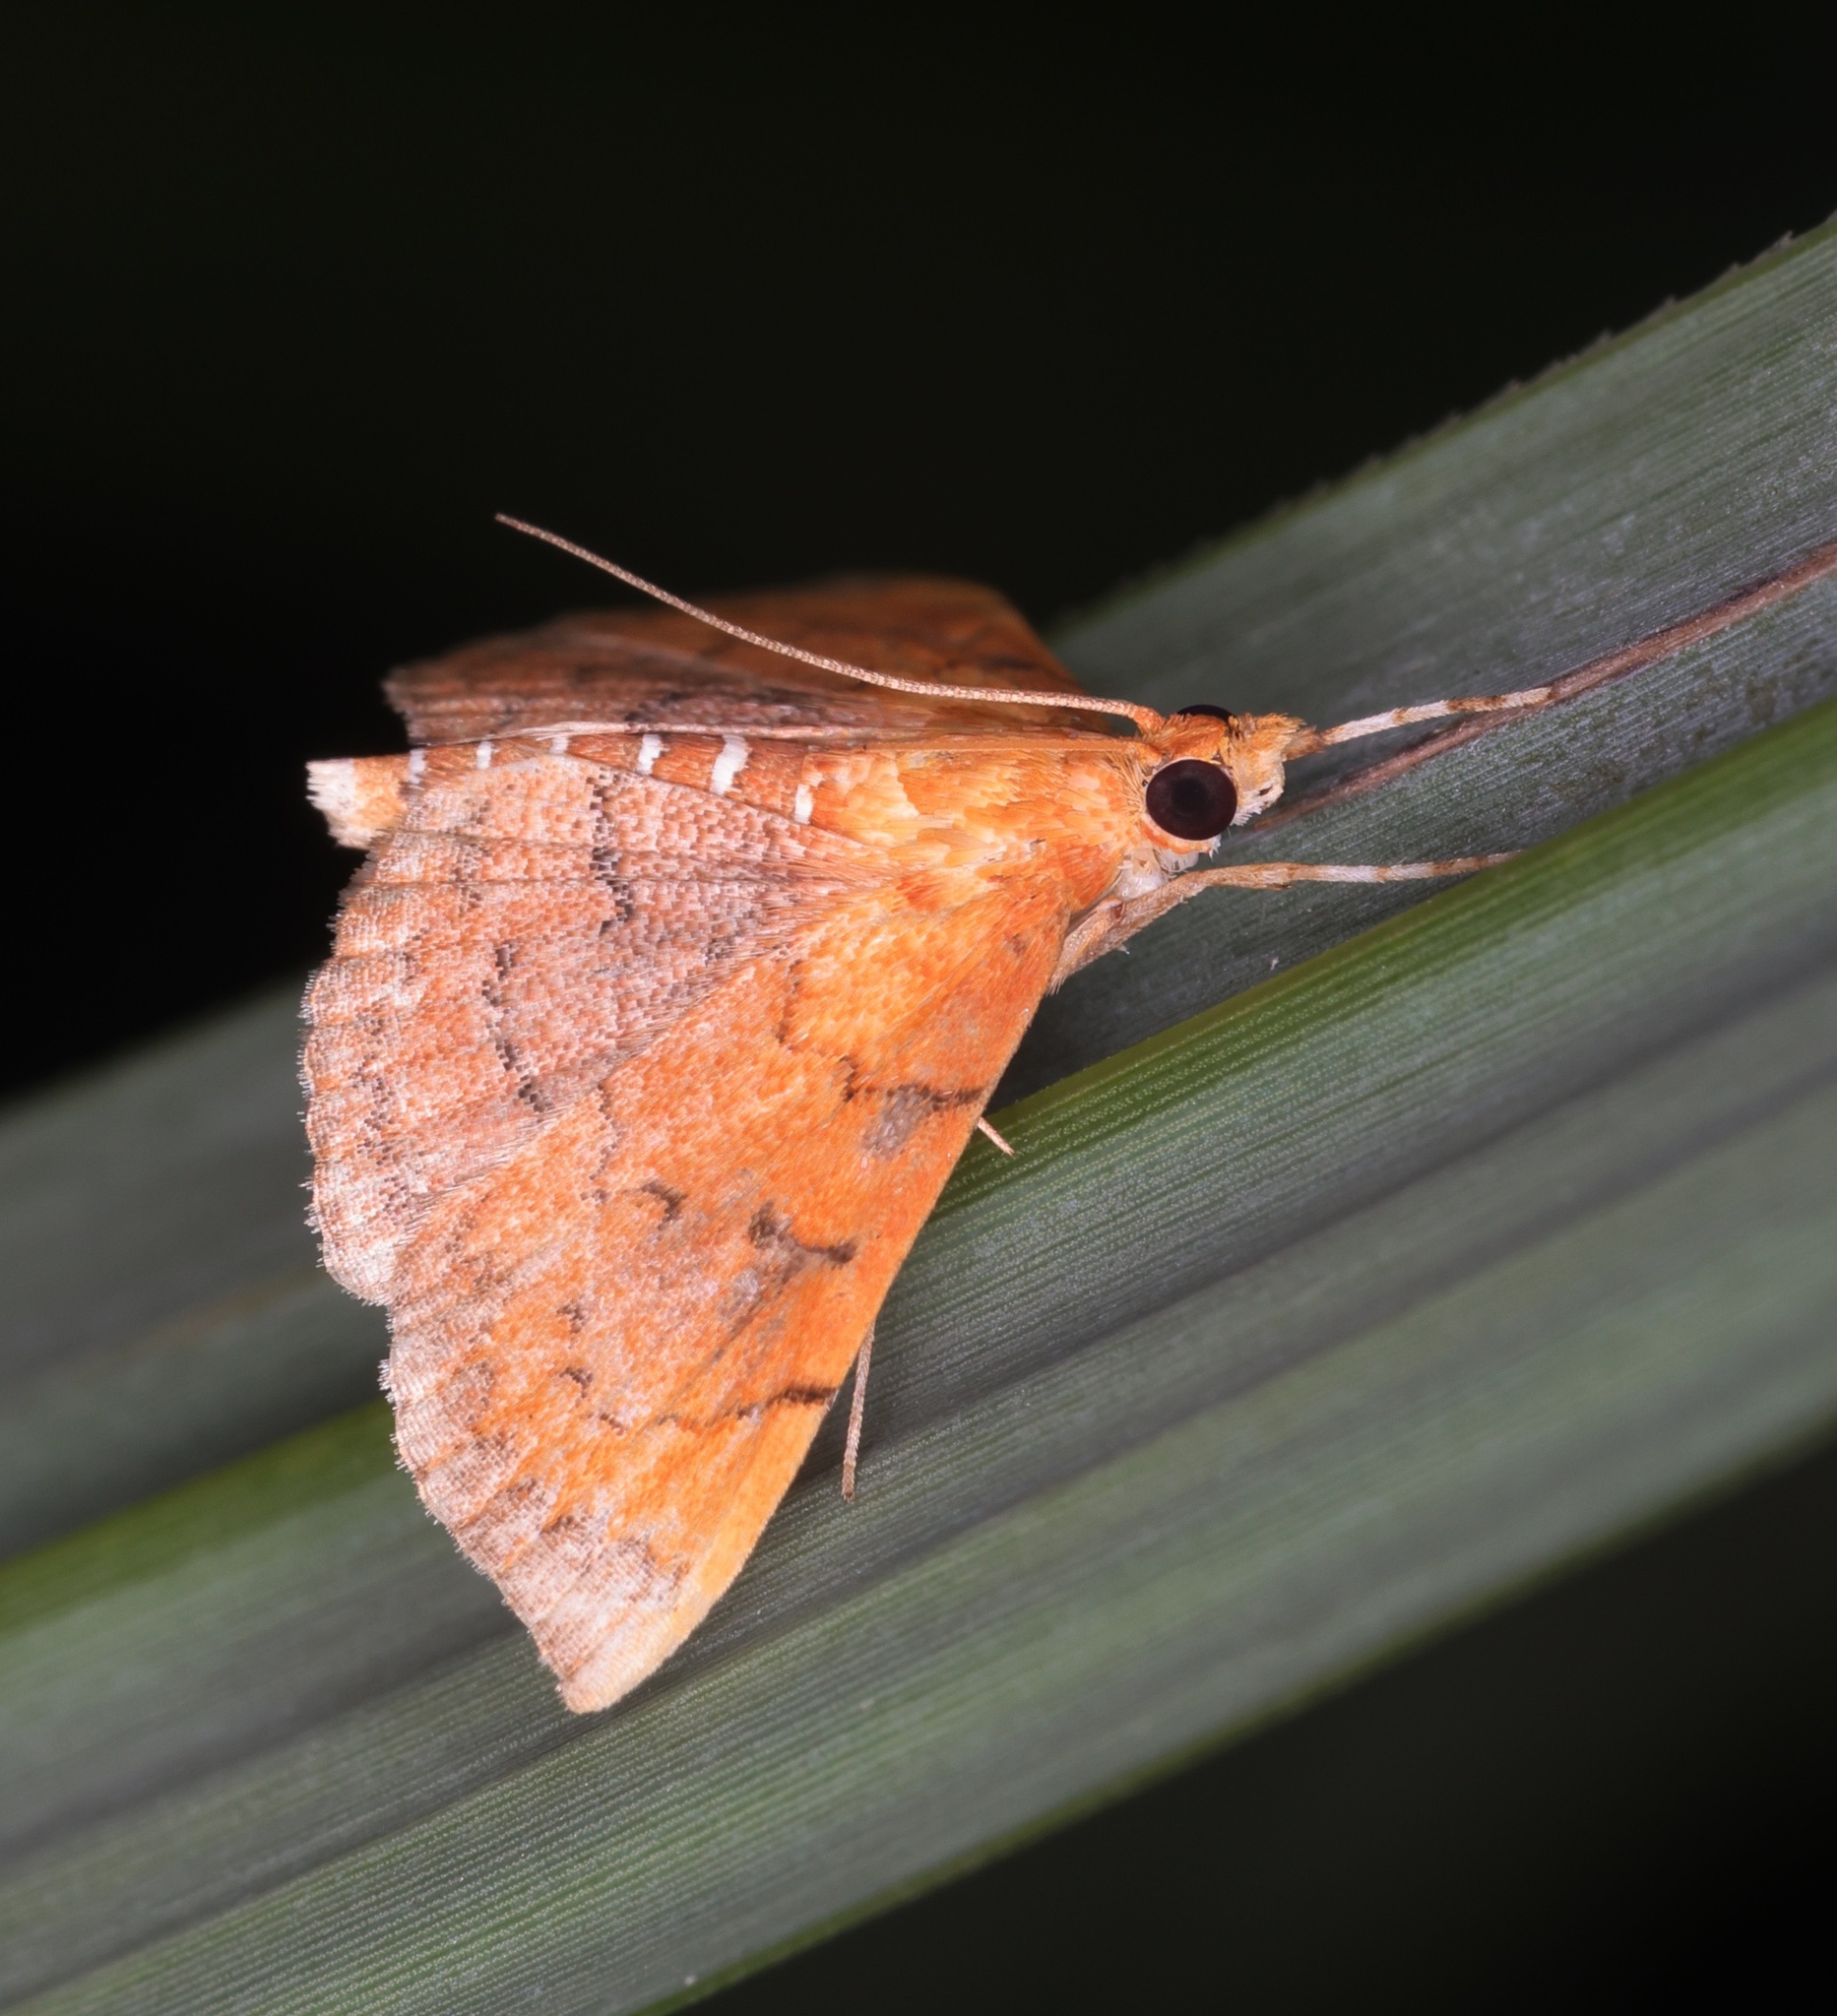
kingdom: Animalia
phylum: Arthropoda
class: Insecta
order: Lepidoptera
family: Crambidae
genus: Hyalobathra
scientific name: Hyalobathra micralis
